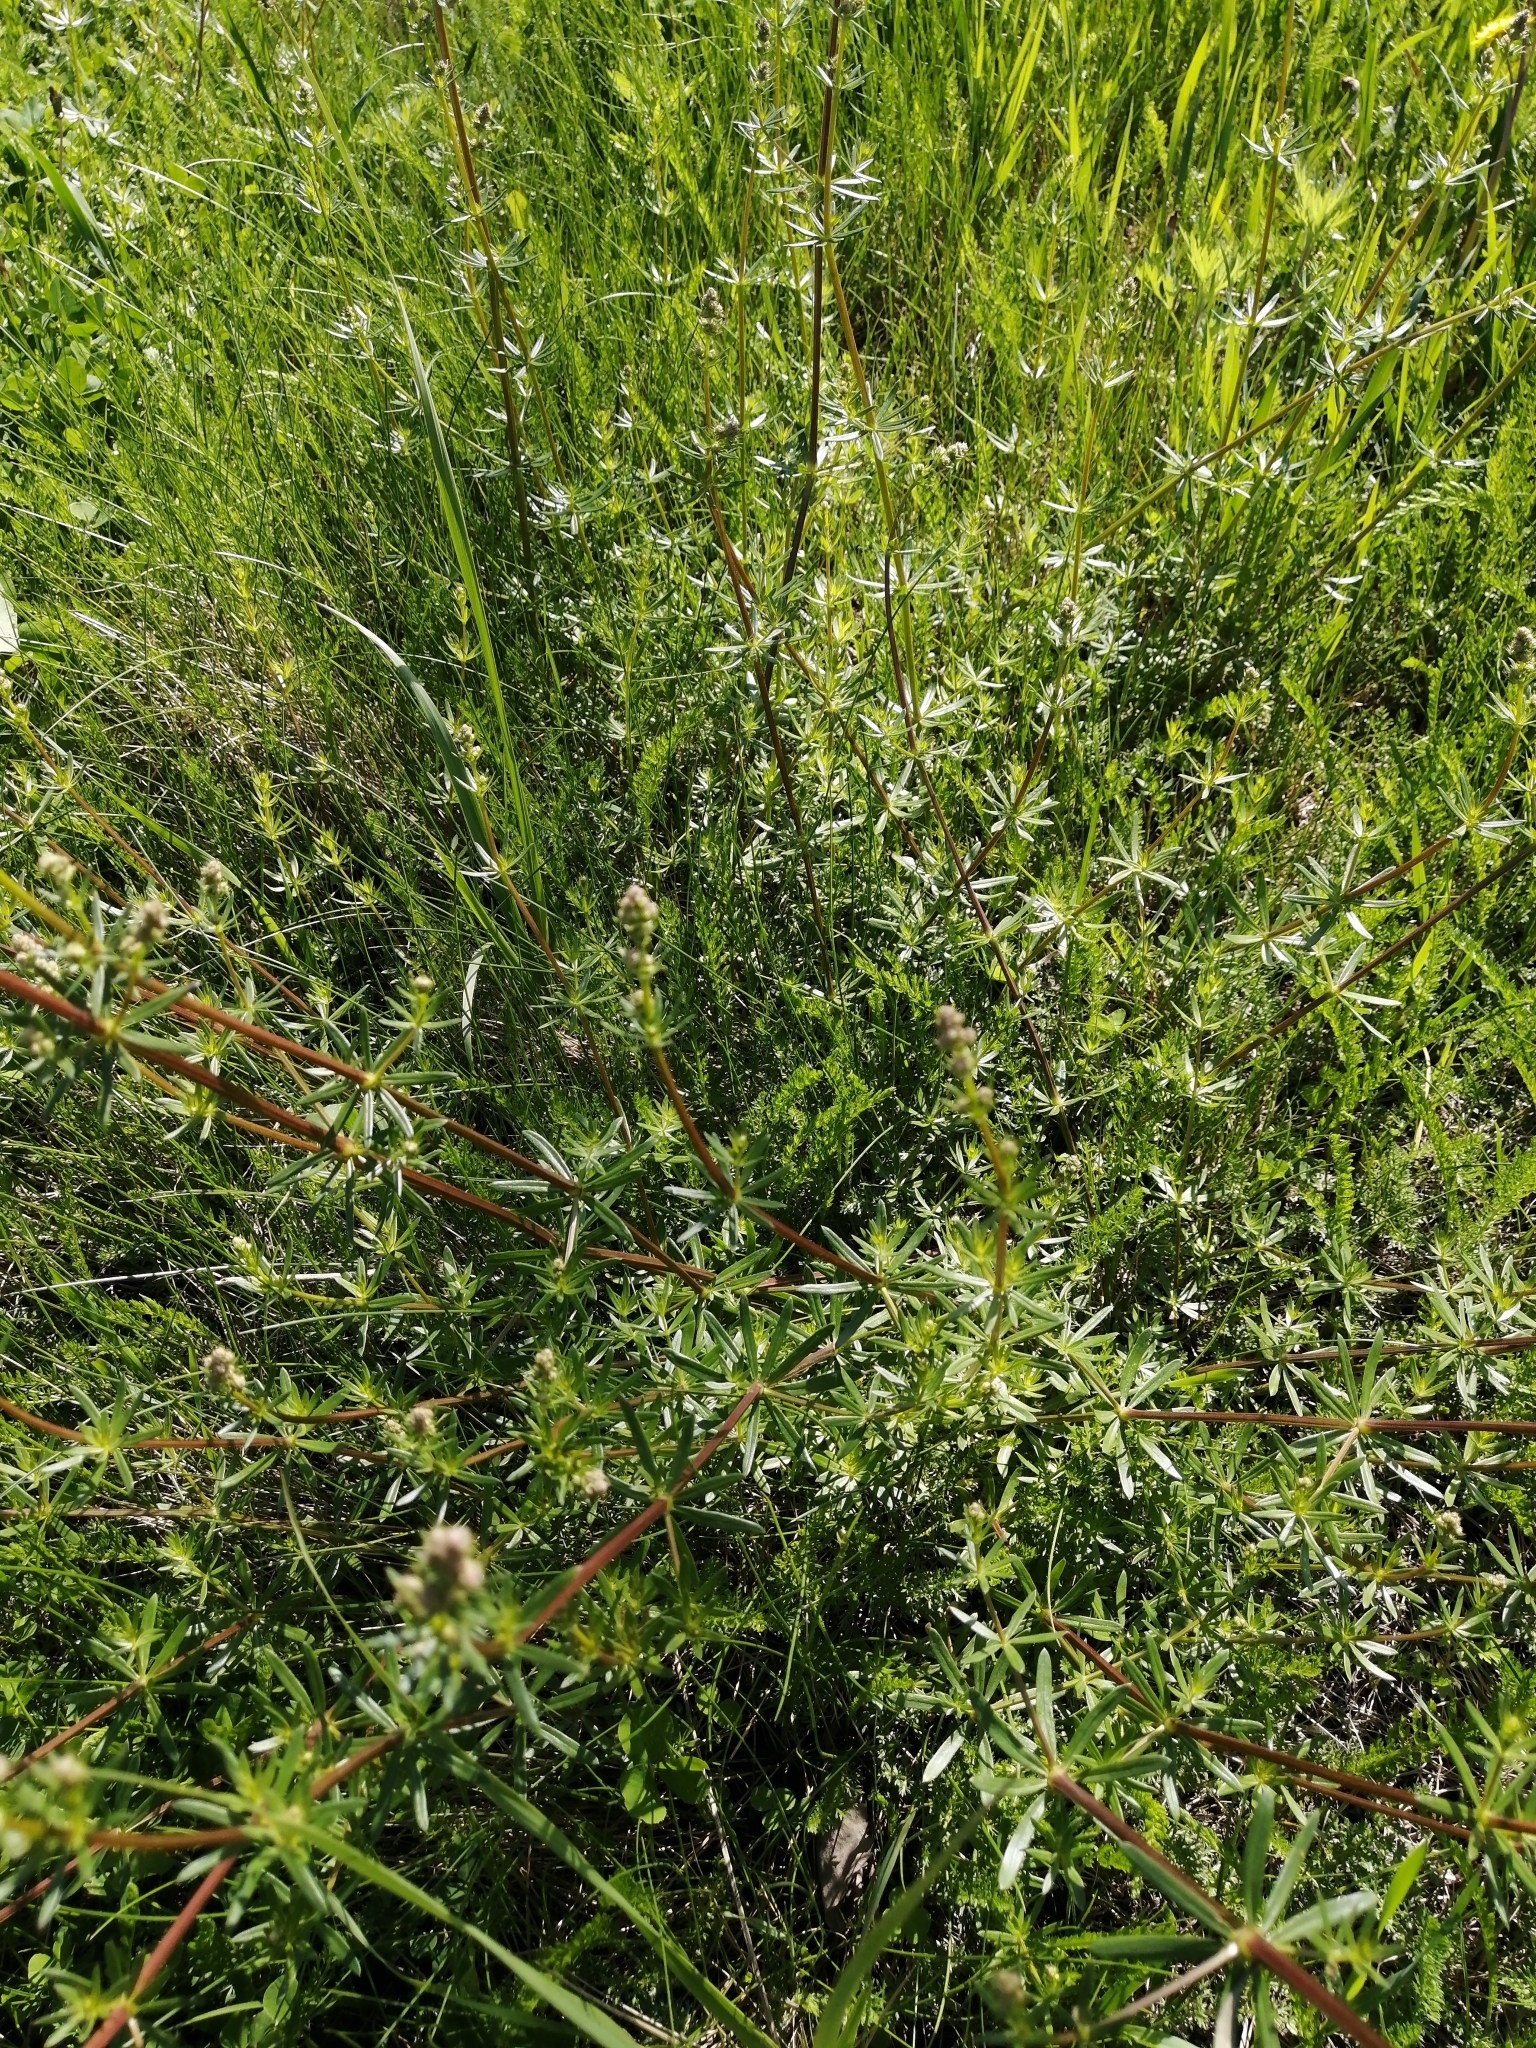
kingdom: Plantae
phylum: Tracheophyta
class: Magnoliopsida
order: Gentianales
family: Rubiaceae
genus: Galium
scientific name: Galium mollugo
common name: Hedge bedstraw
